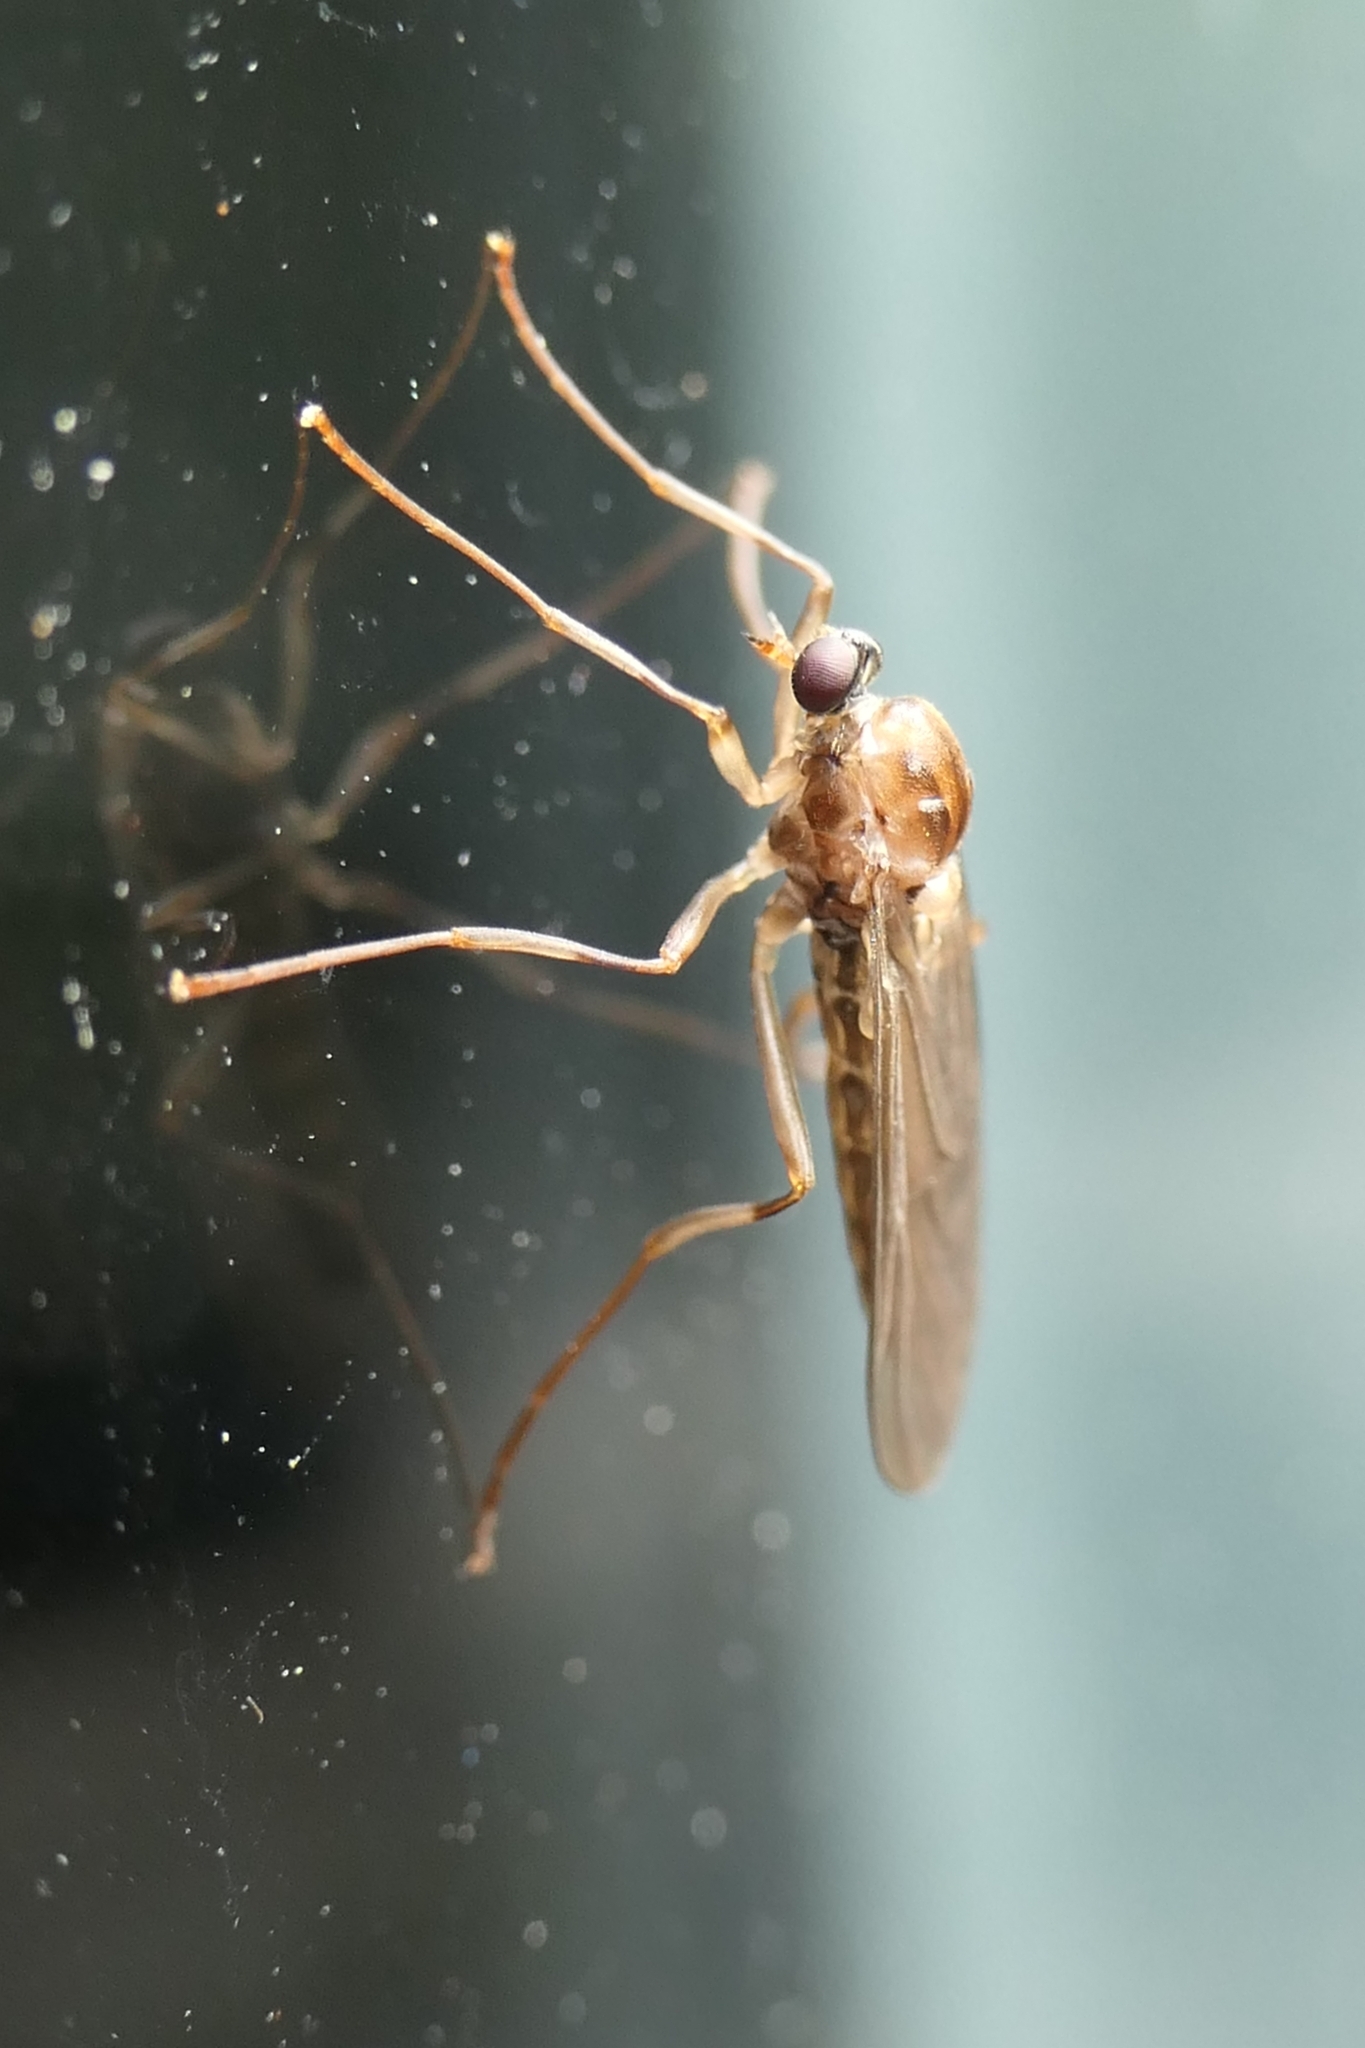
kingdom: Animalia
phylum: Arthropoda
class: Insecta
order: Diptera
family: Stratiomyidae
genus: Boreoides
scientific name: Boreoides tasmaniensis
